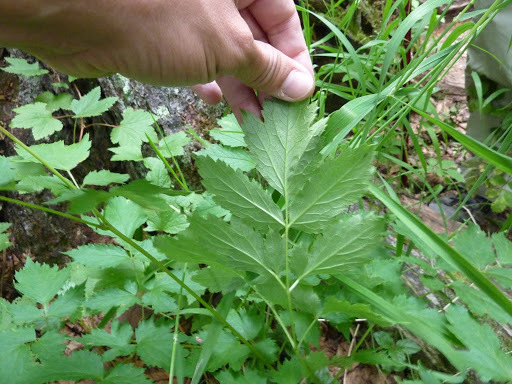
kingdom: Plantae
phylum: Tracheophyta
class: Magnoliopsida
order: Ranunculales
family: Ranunculaceae
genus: Actaea
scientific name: Actaea rubra
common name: Red baneberry
